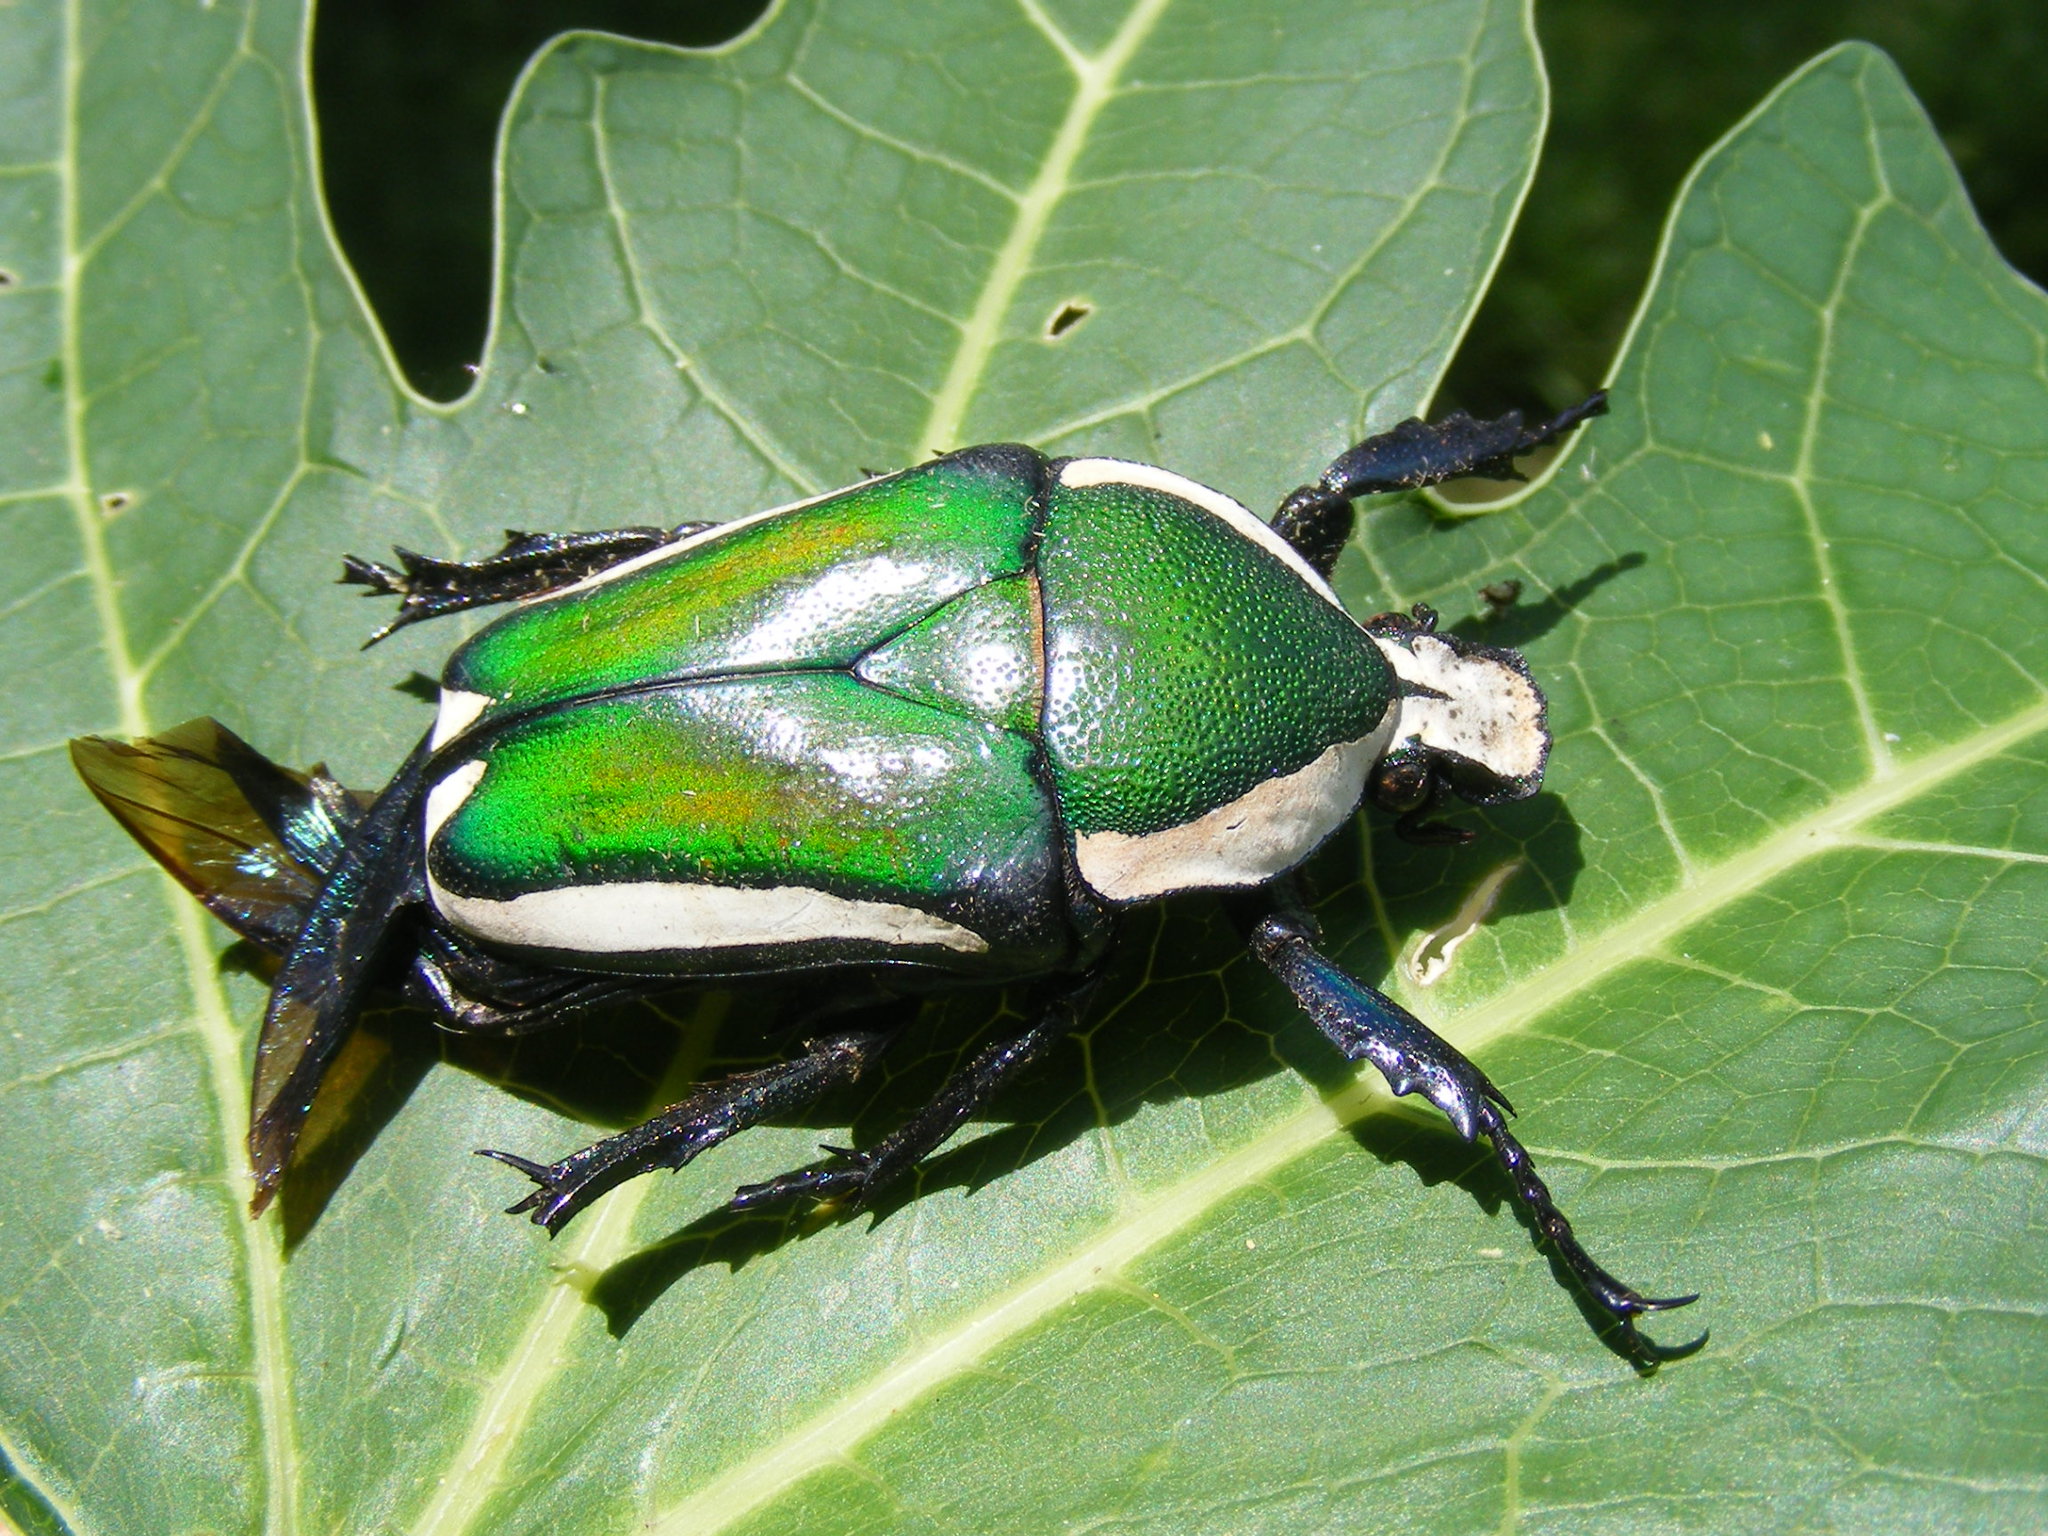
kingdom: Animalia
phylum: Arthropoda
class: Insecta
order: Coleoptera
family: Scarabaeidae
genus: Dicronorhina
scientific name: Dicronorhina derbyana
